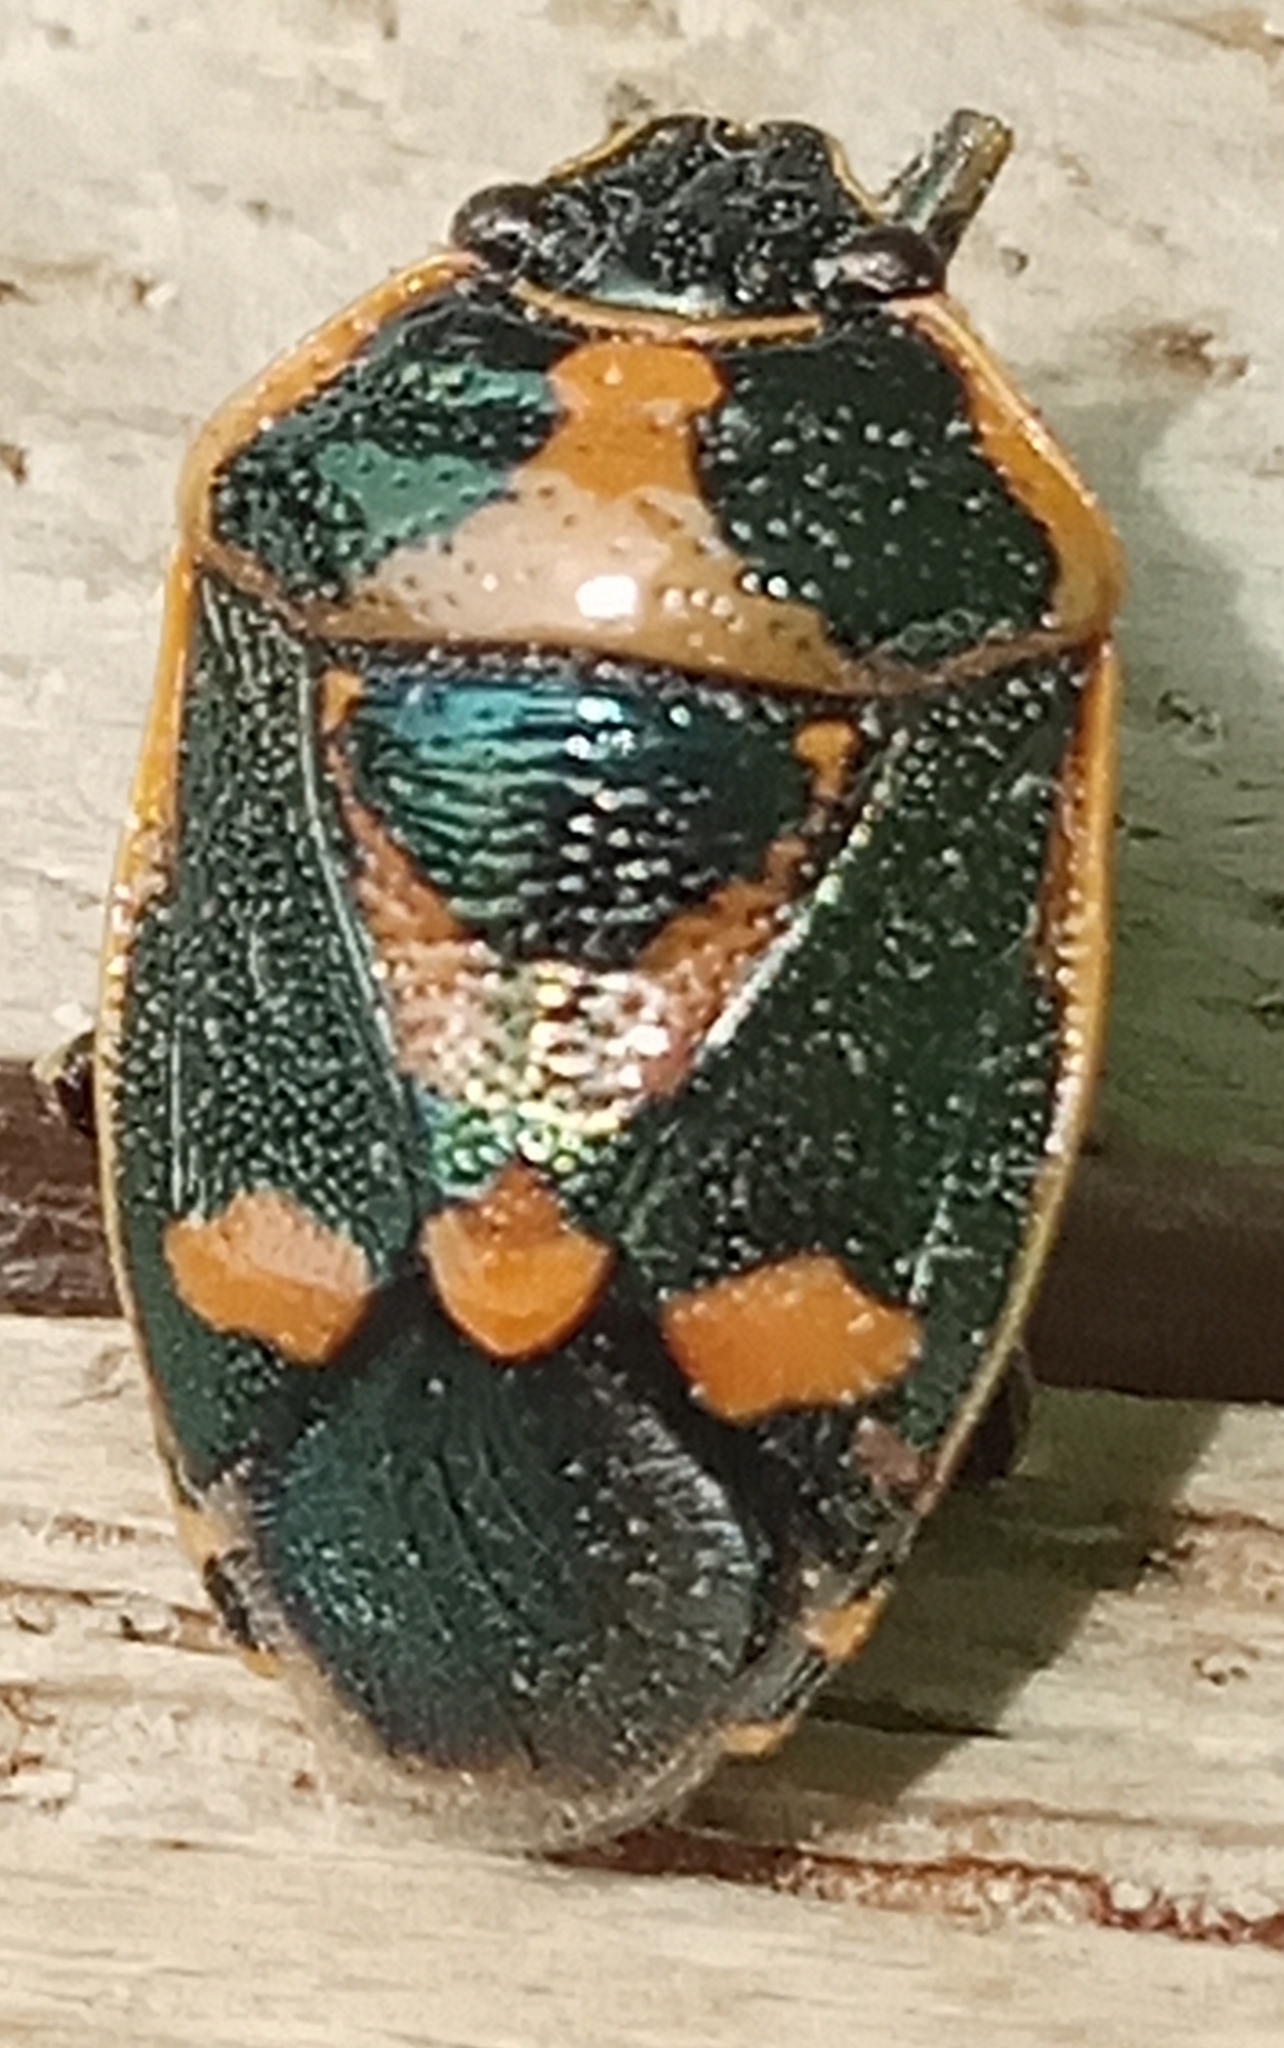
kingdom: Animalia
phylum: Arthropoda
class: Insecta
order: Hemiptera
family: Pentatomidae
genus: Eurydema
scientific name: Eurydema oleracea
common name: Cabbage bug
